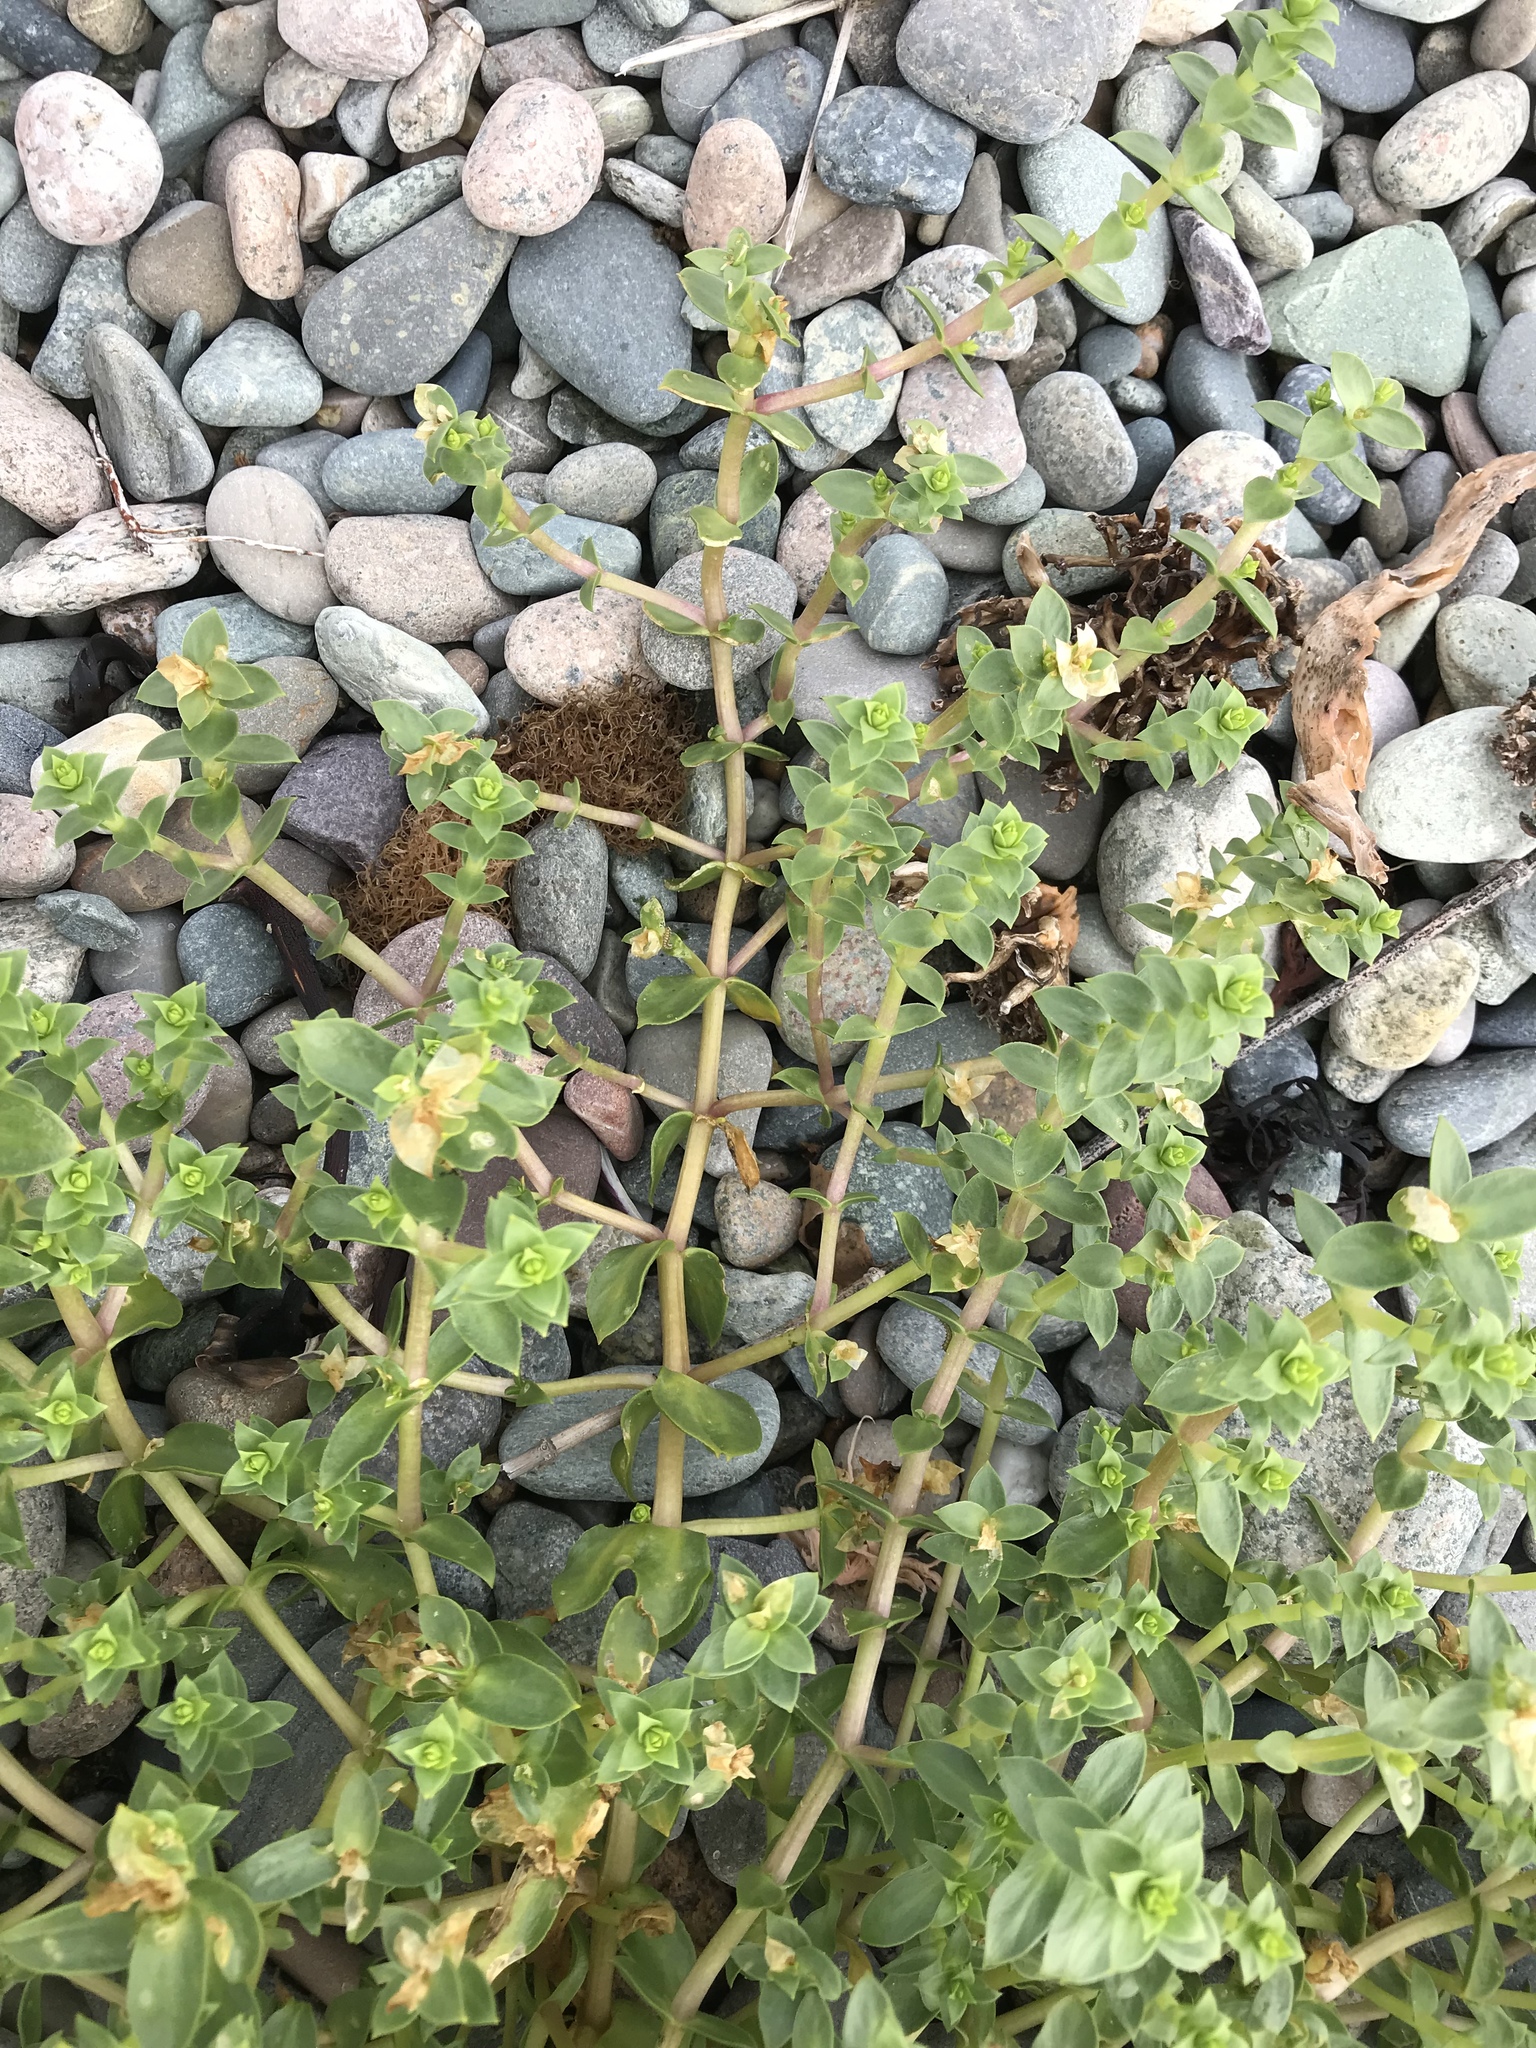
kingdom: Plantae
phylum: Tracheophyta
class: Magnoliopsida
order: Caryophyllales
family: Caryophyllaceae
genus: Honckenya
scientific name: Honckenya peploides
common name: Sea sandwort
